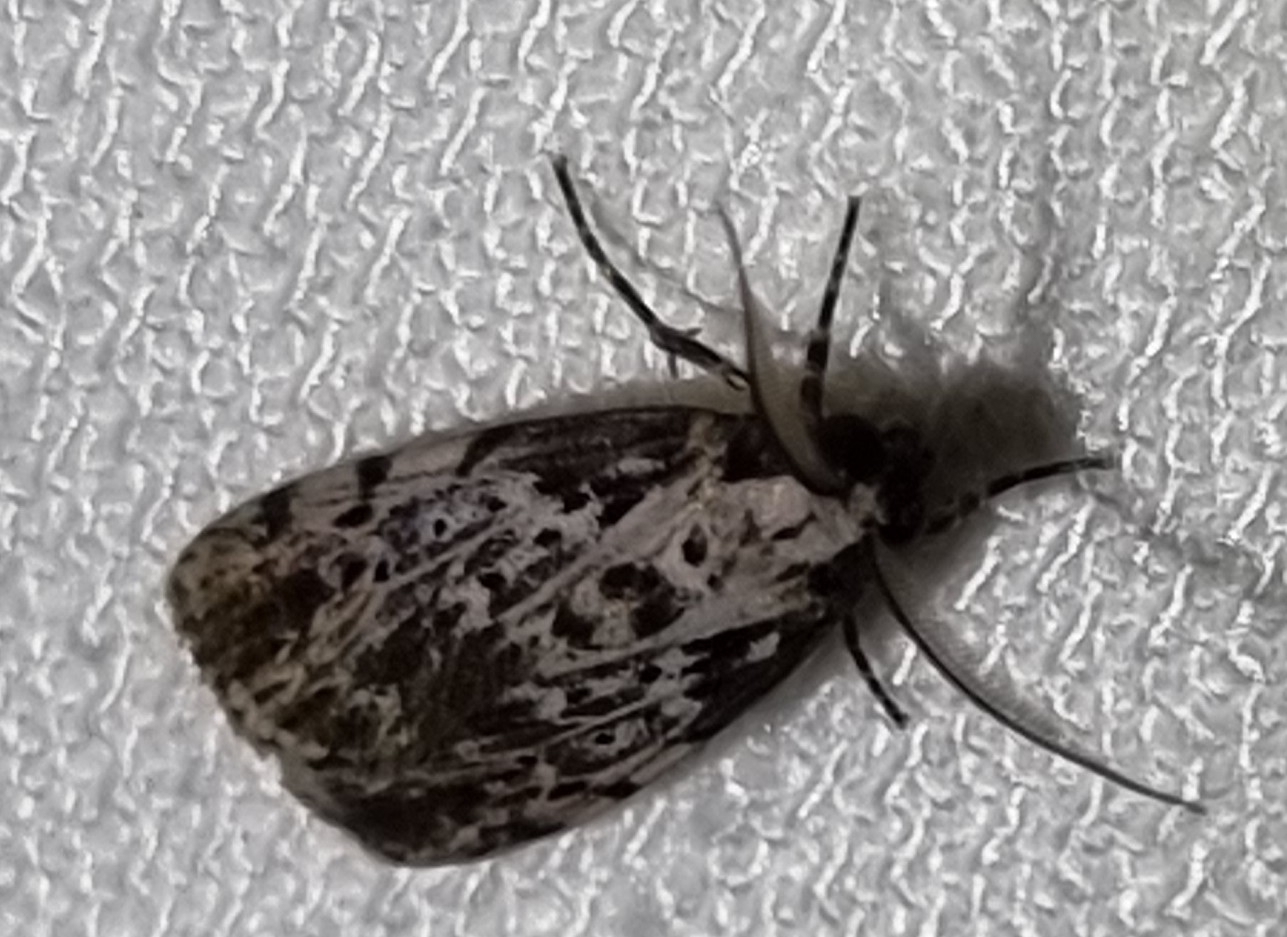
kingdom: Animalia
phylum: Arthropoda
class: Insecta
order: Lepidoptera
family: Erebidae
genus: Digama
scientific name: Digama Sommeria marmorea
